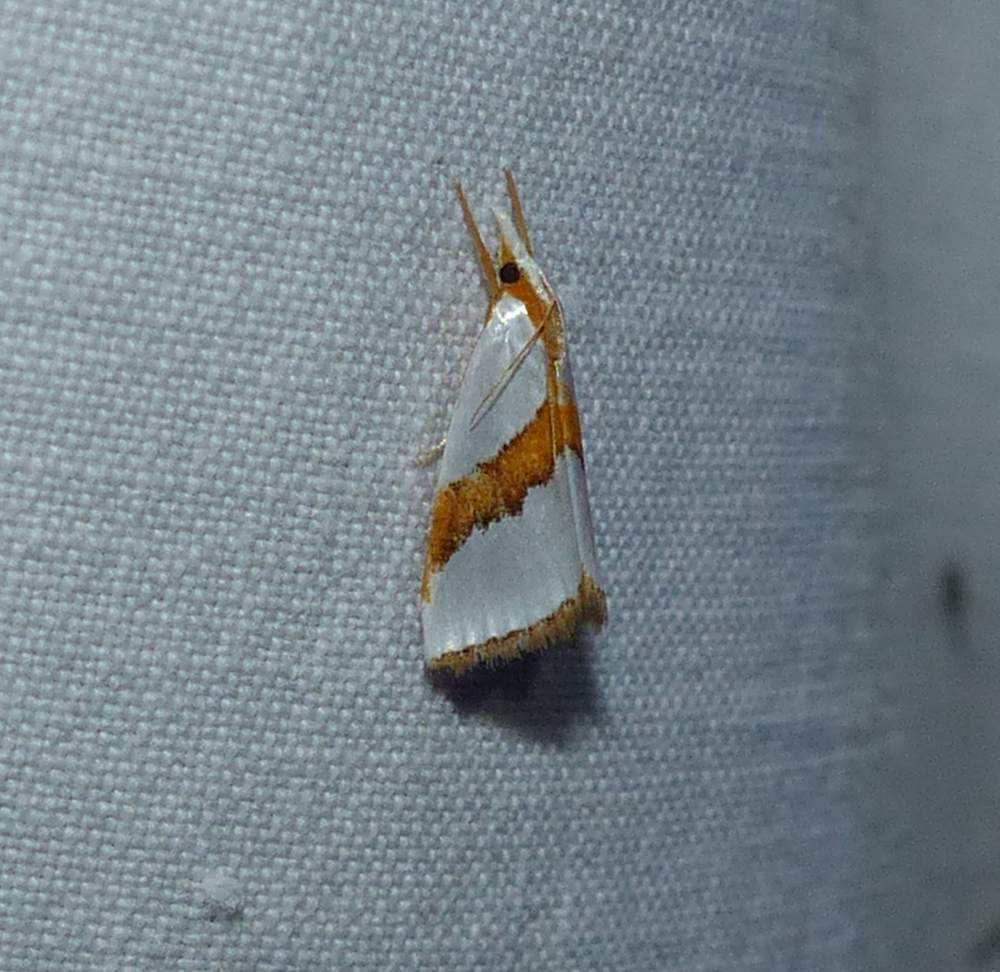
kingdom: Animalia
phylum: Arthropoda
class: Insecta
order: Lepidoptera
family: Crambidae
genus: Vaxi
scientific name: Vaxi critica
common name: Straight-lined vaxi moth
